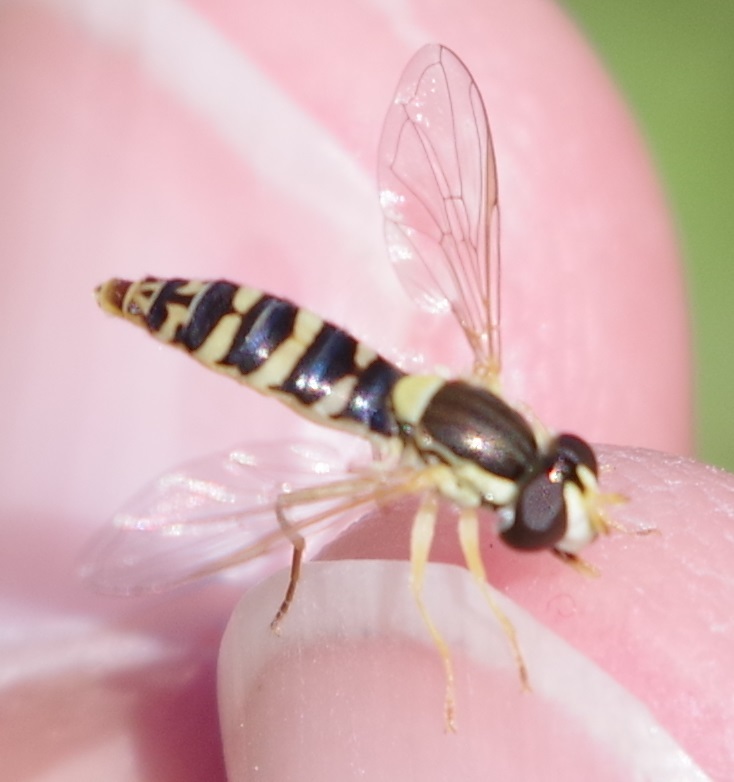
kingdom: Animalia
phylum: Arthropoda
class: Insecta
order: Diptera
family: Syrphidae
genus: Sphaerophoria
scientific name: Sphaerophoria
